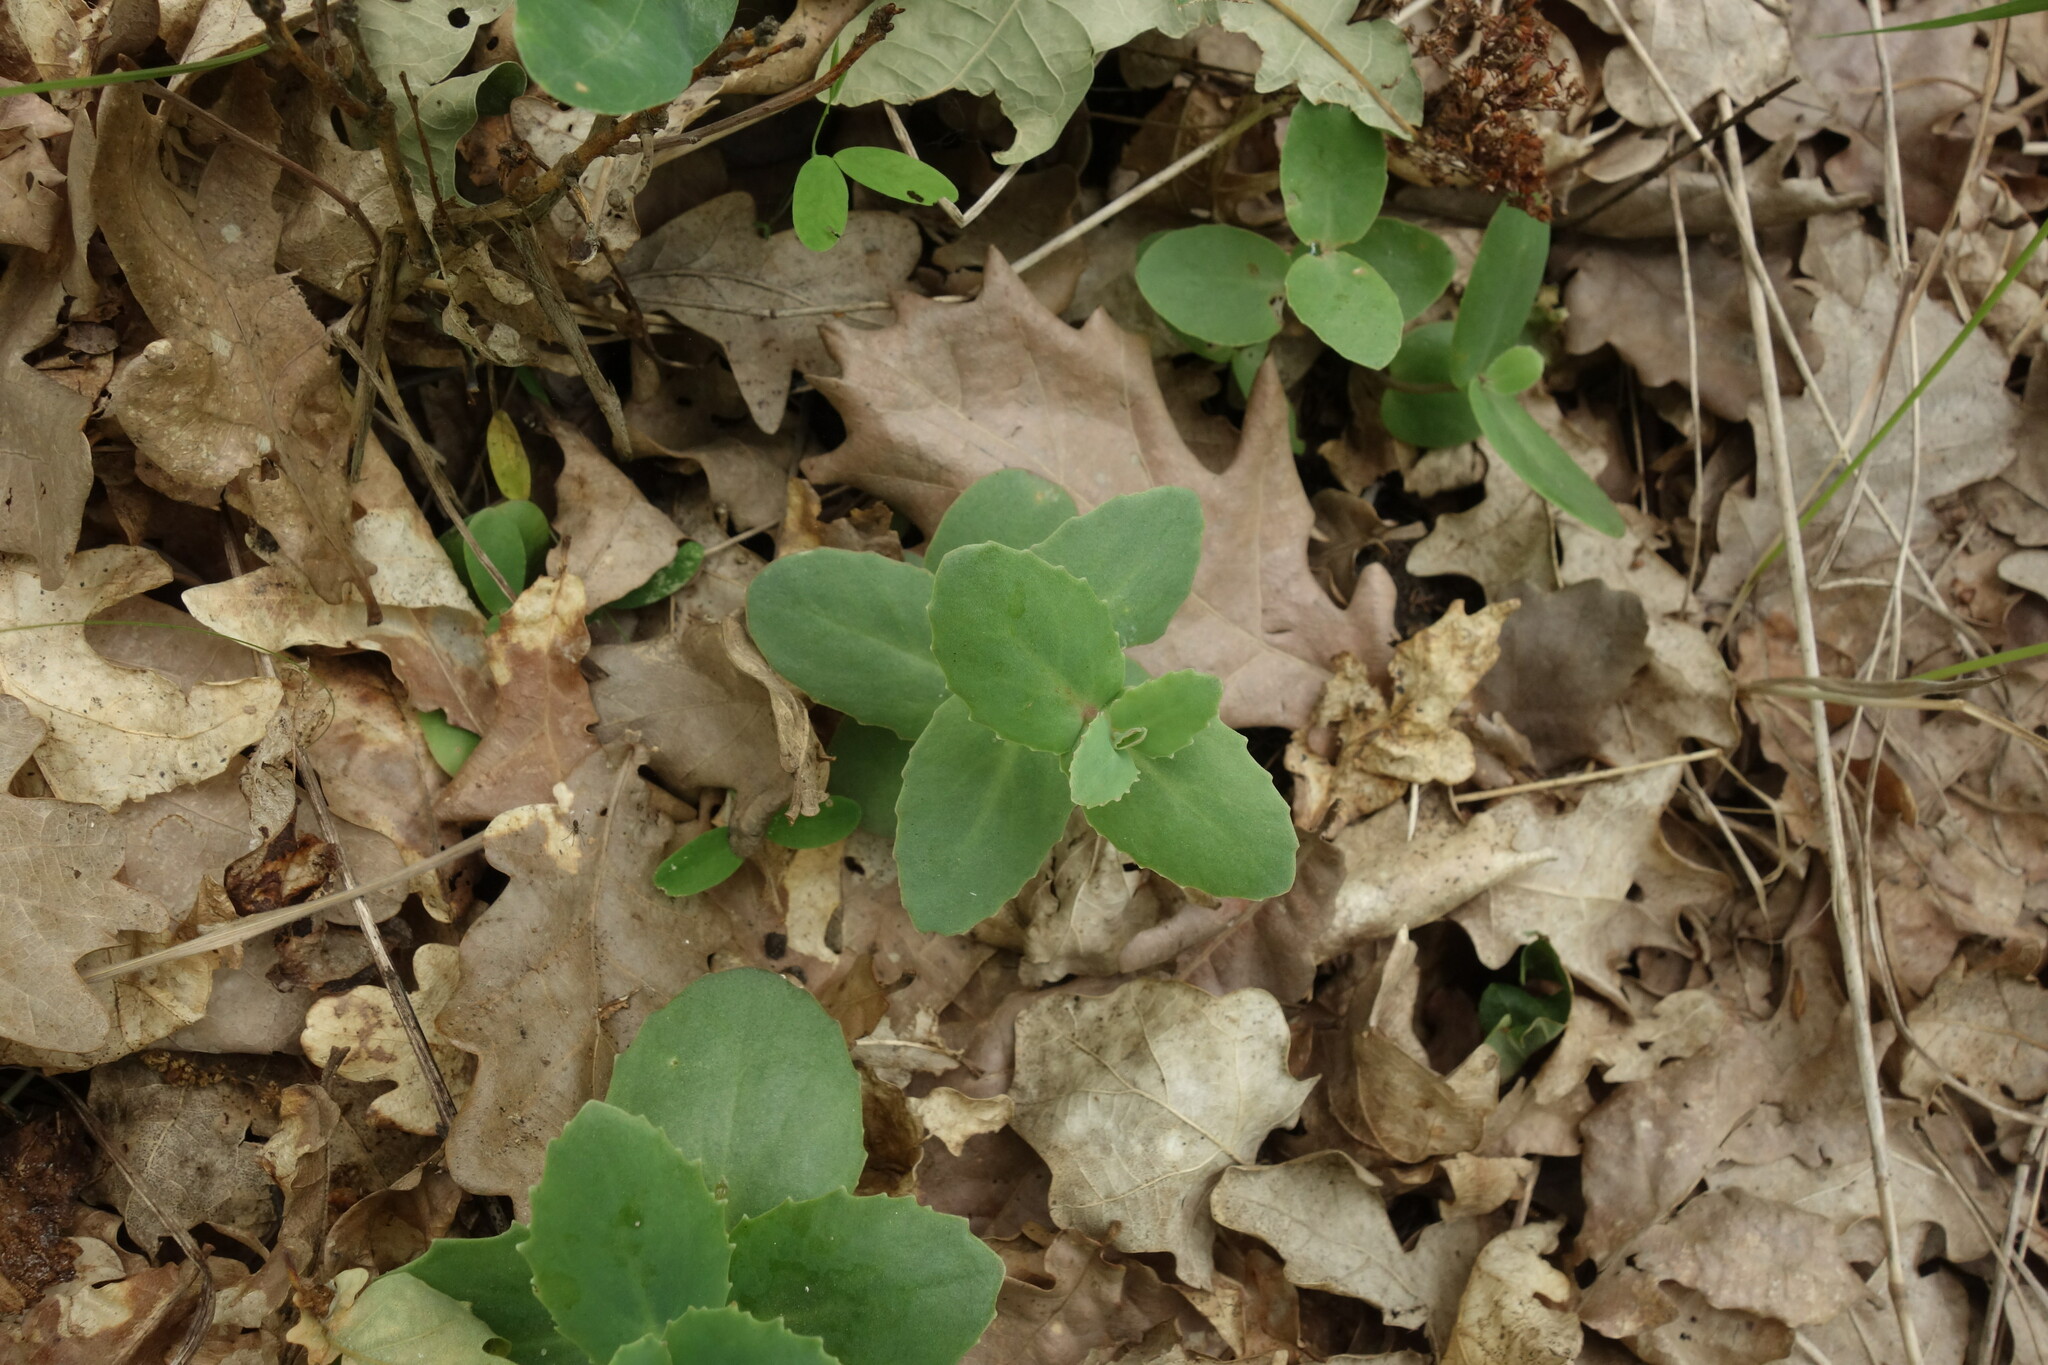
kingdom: Plantae
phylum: Tracheophyta
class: Magnoliopsida
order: Saxifragales
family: Crassulaceae
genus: Hylotelephium
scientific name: Hylotelephium maximum
